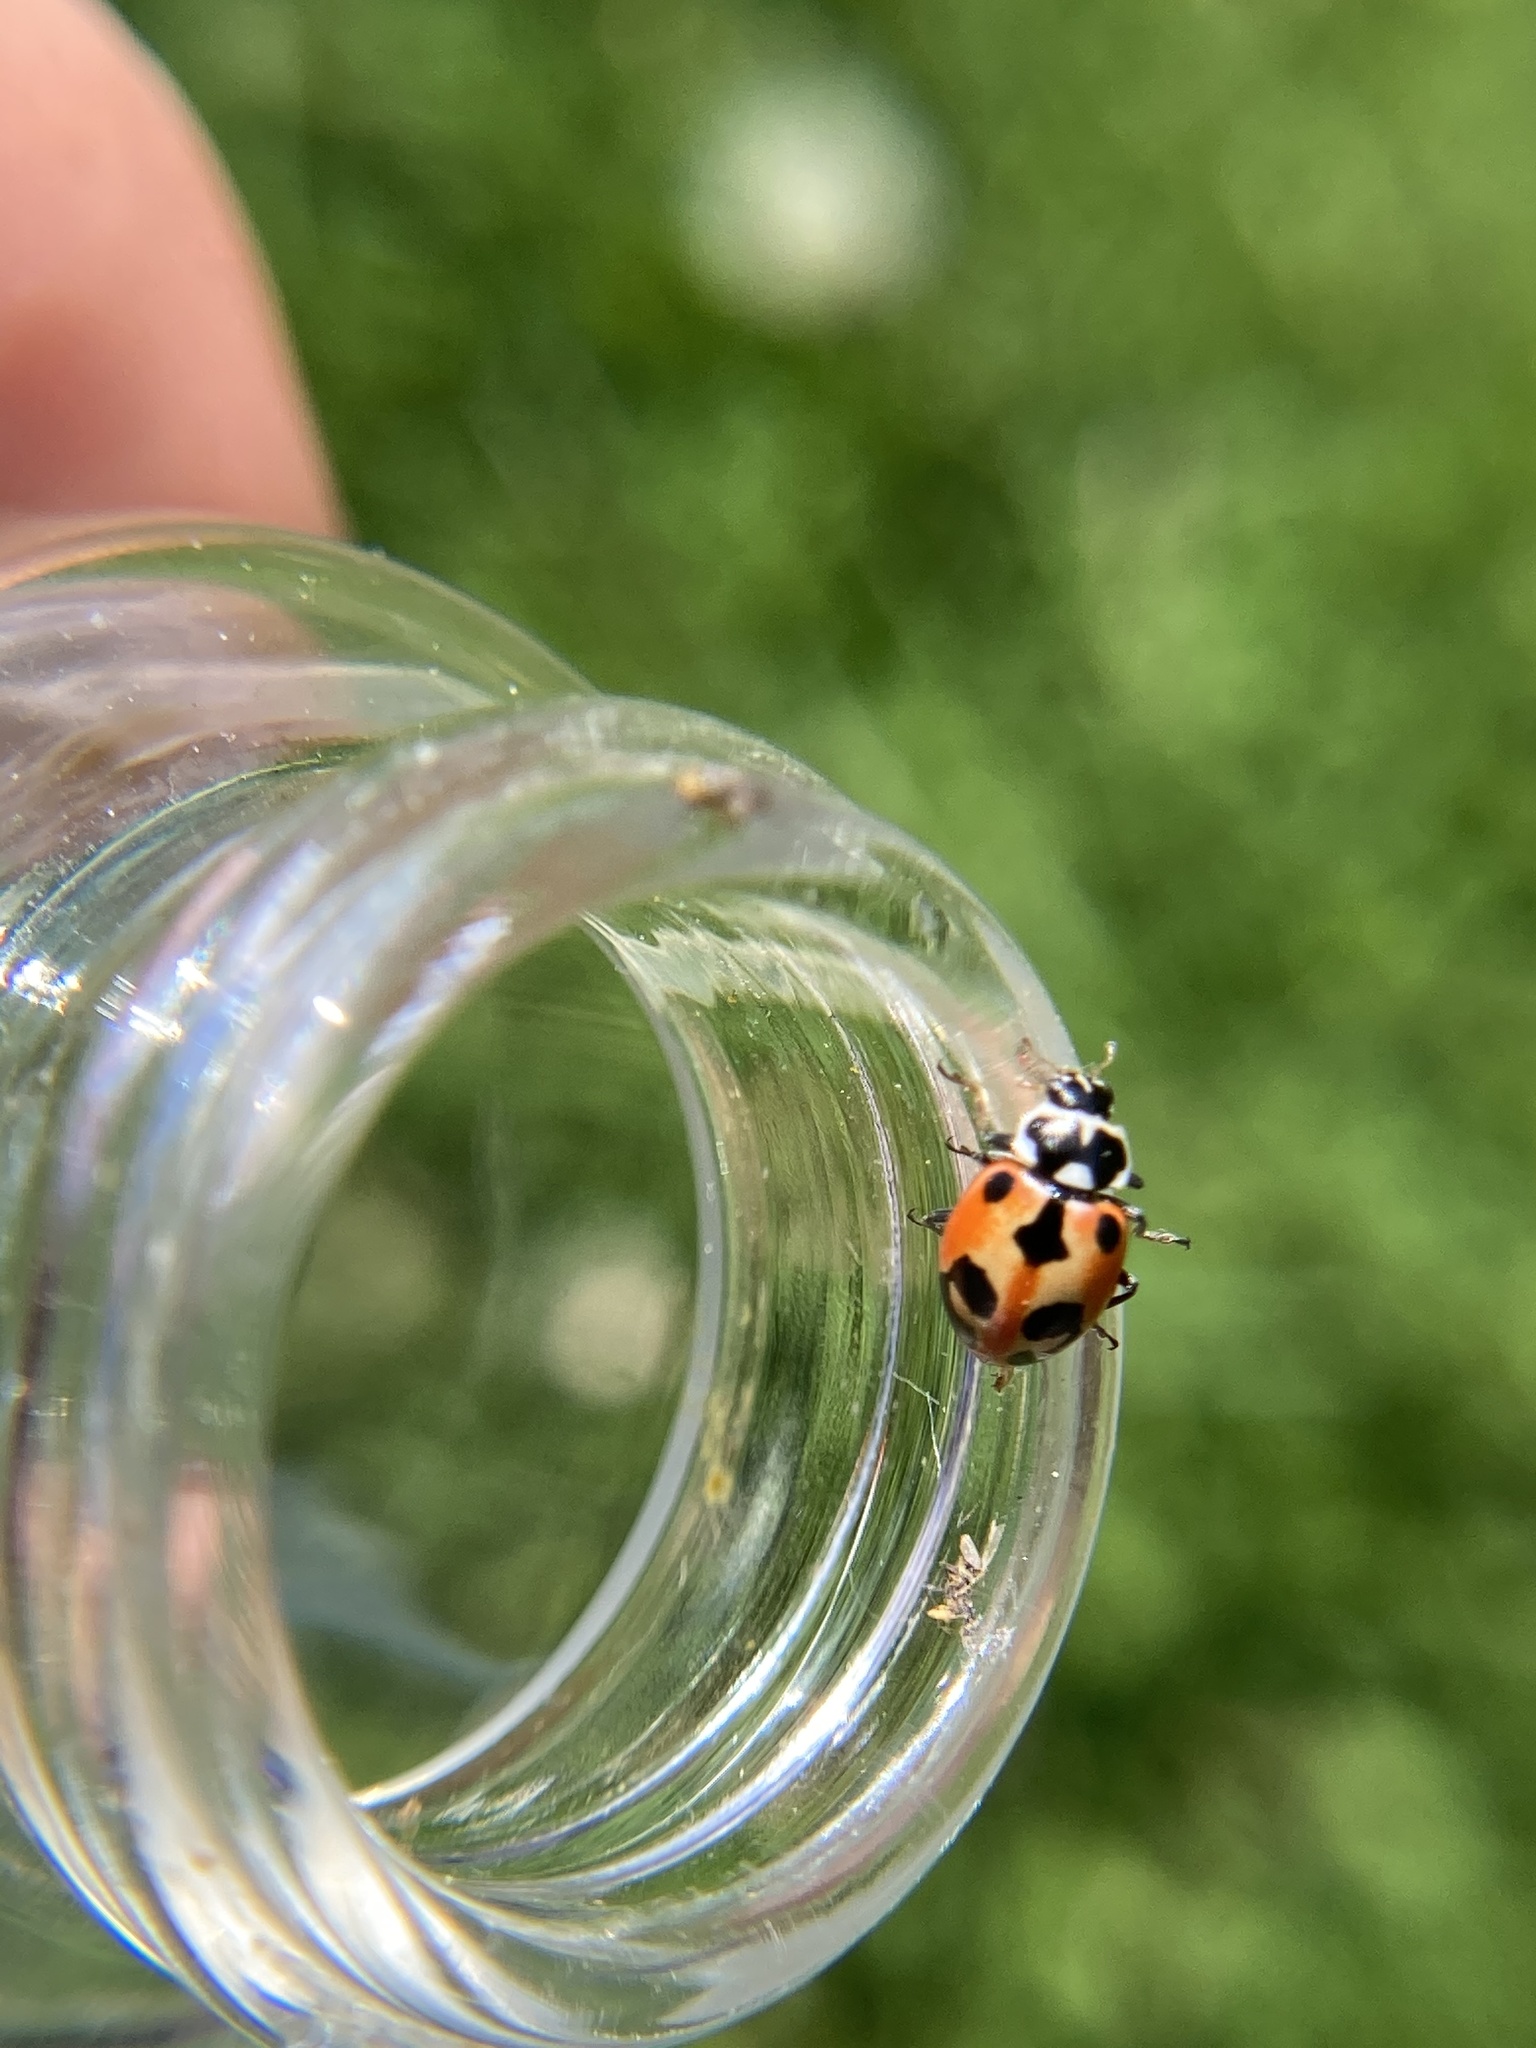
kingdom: Animalia
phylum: Arthropoda
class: Insecta
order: Coleoptera
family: Coccinellidae
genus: Hippodamia
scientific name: Hippodamia parenthesis
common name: Parenthesis lady beetle
